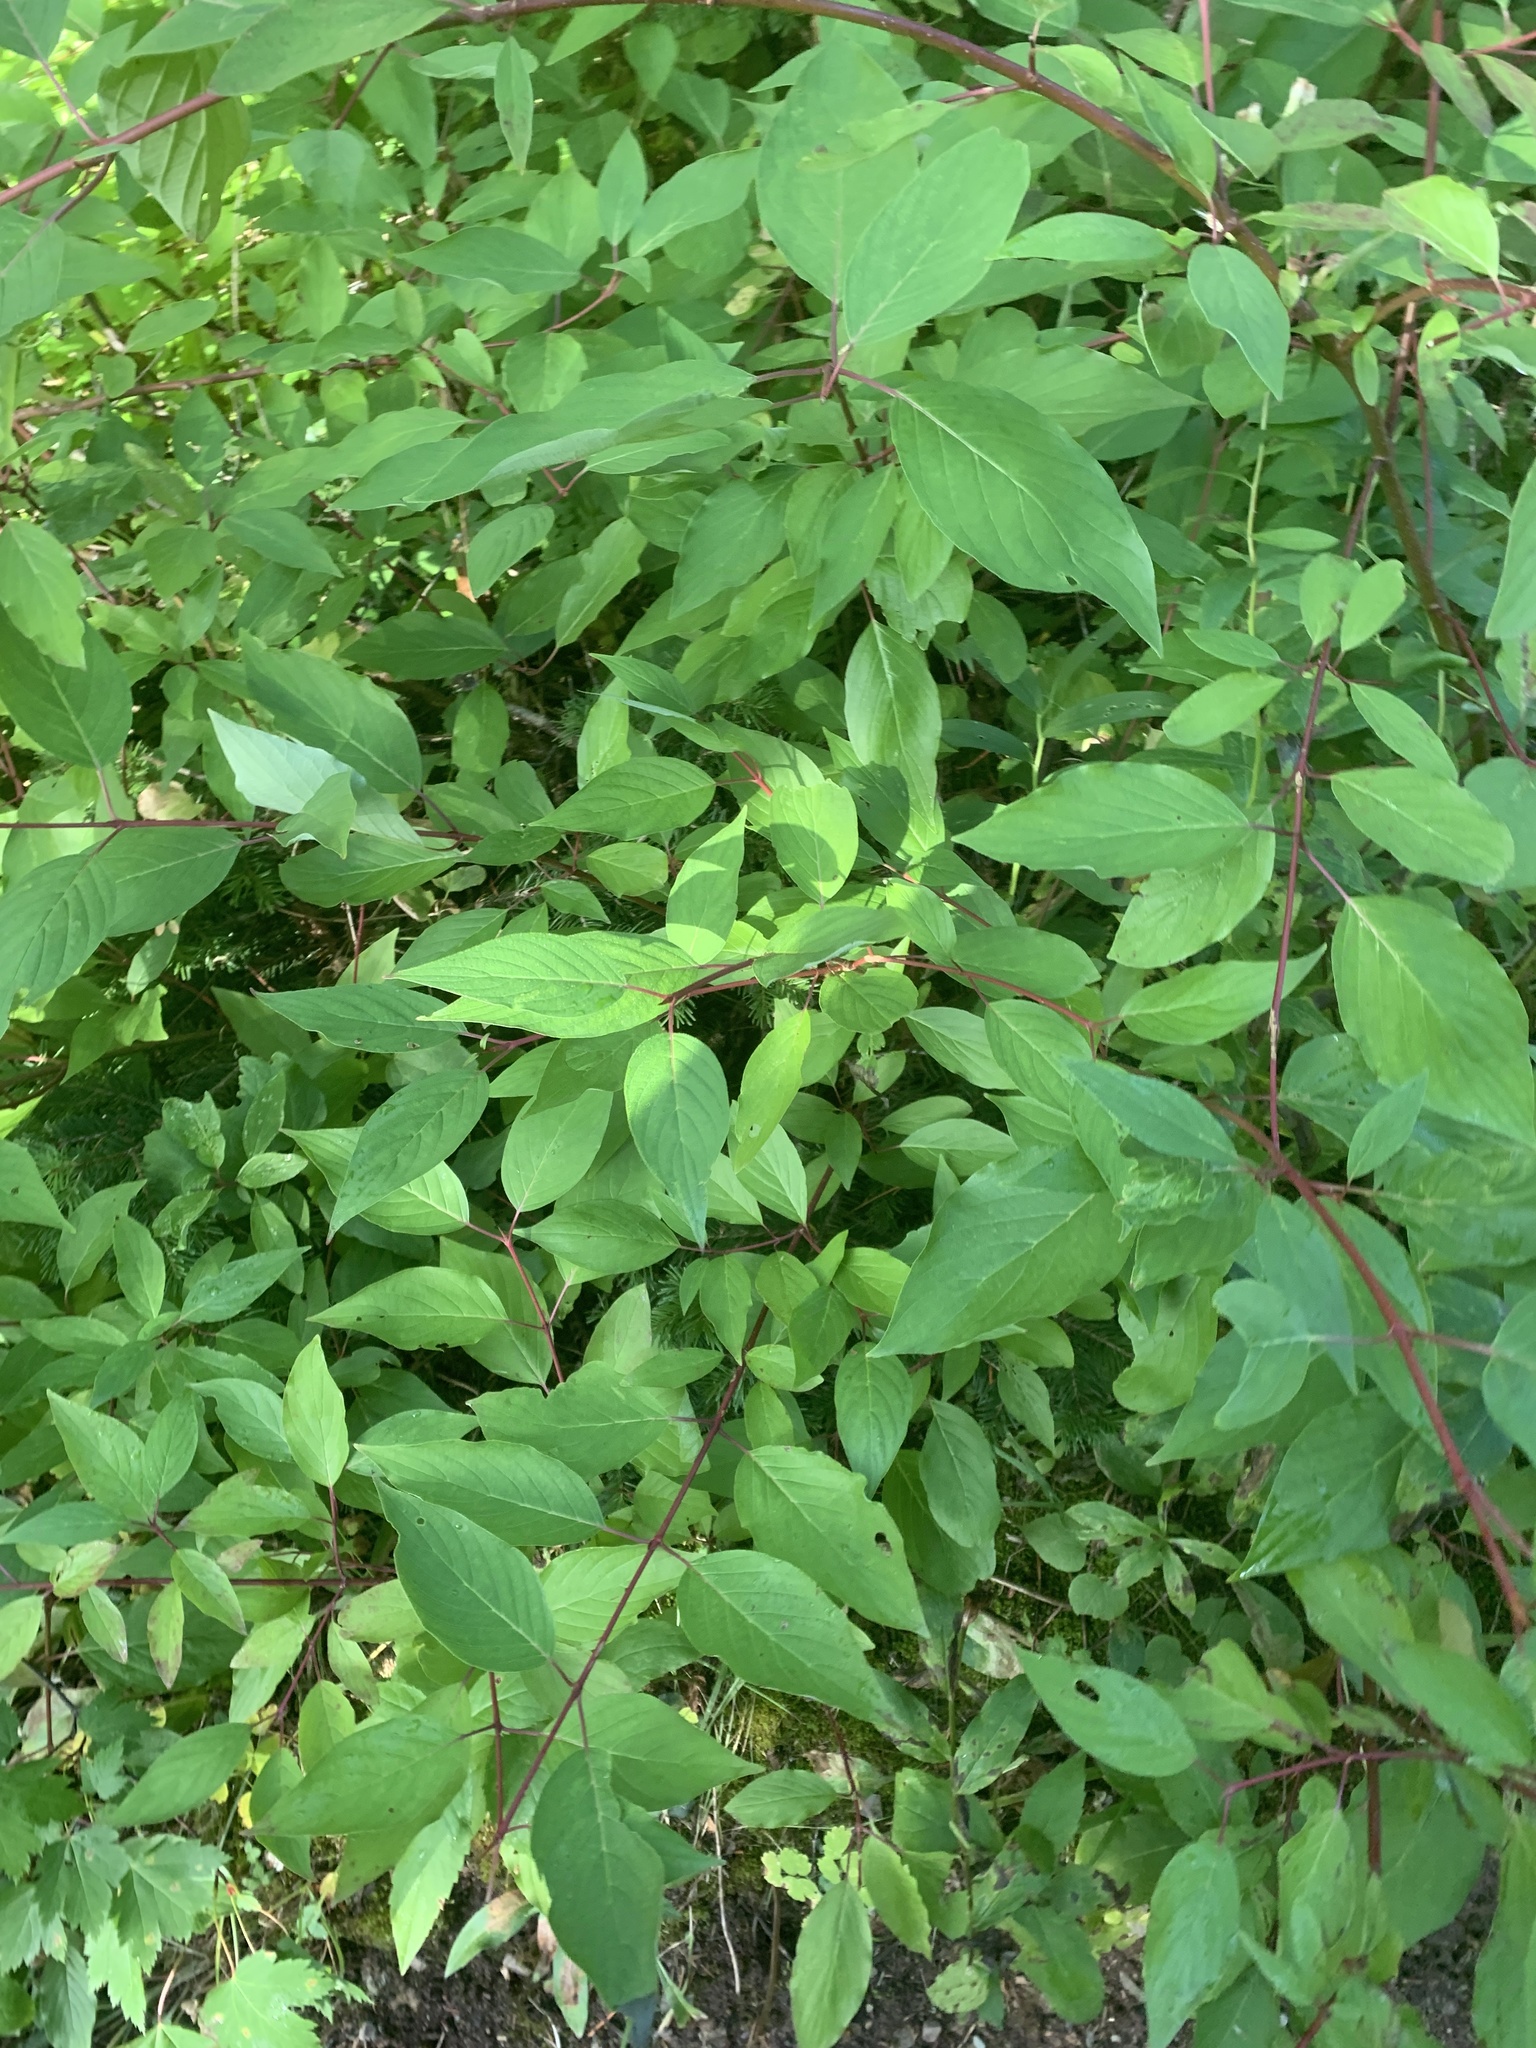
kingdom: Plantae
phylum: Tracheophyta
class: Magnoliopsida
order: Cornales
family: Cornaceae
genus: Cornus
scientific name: Cornus sericea
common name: Red-osier dogwood
